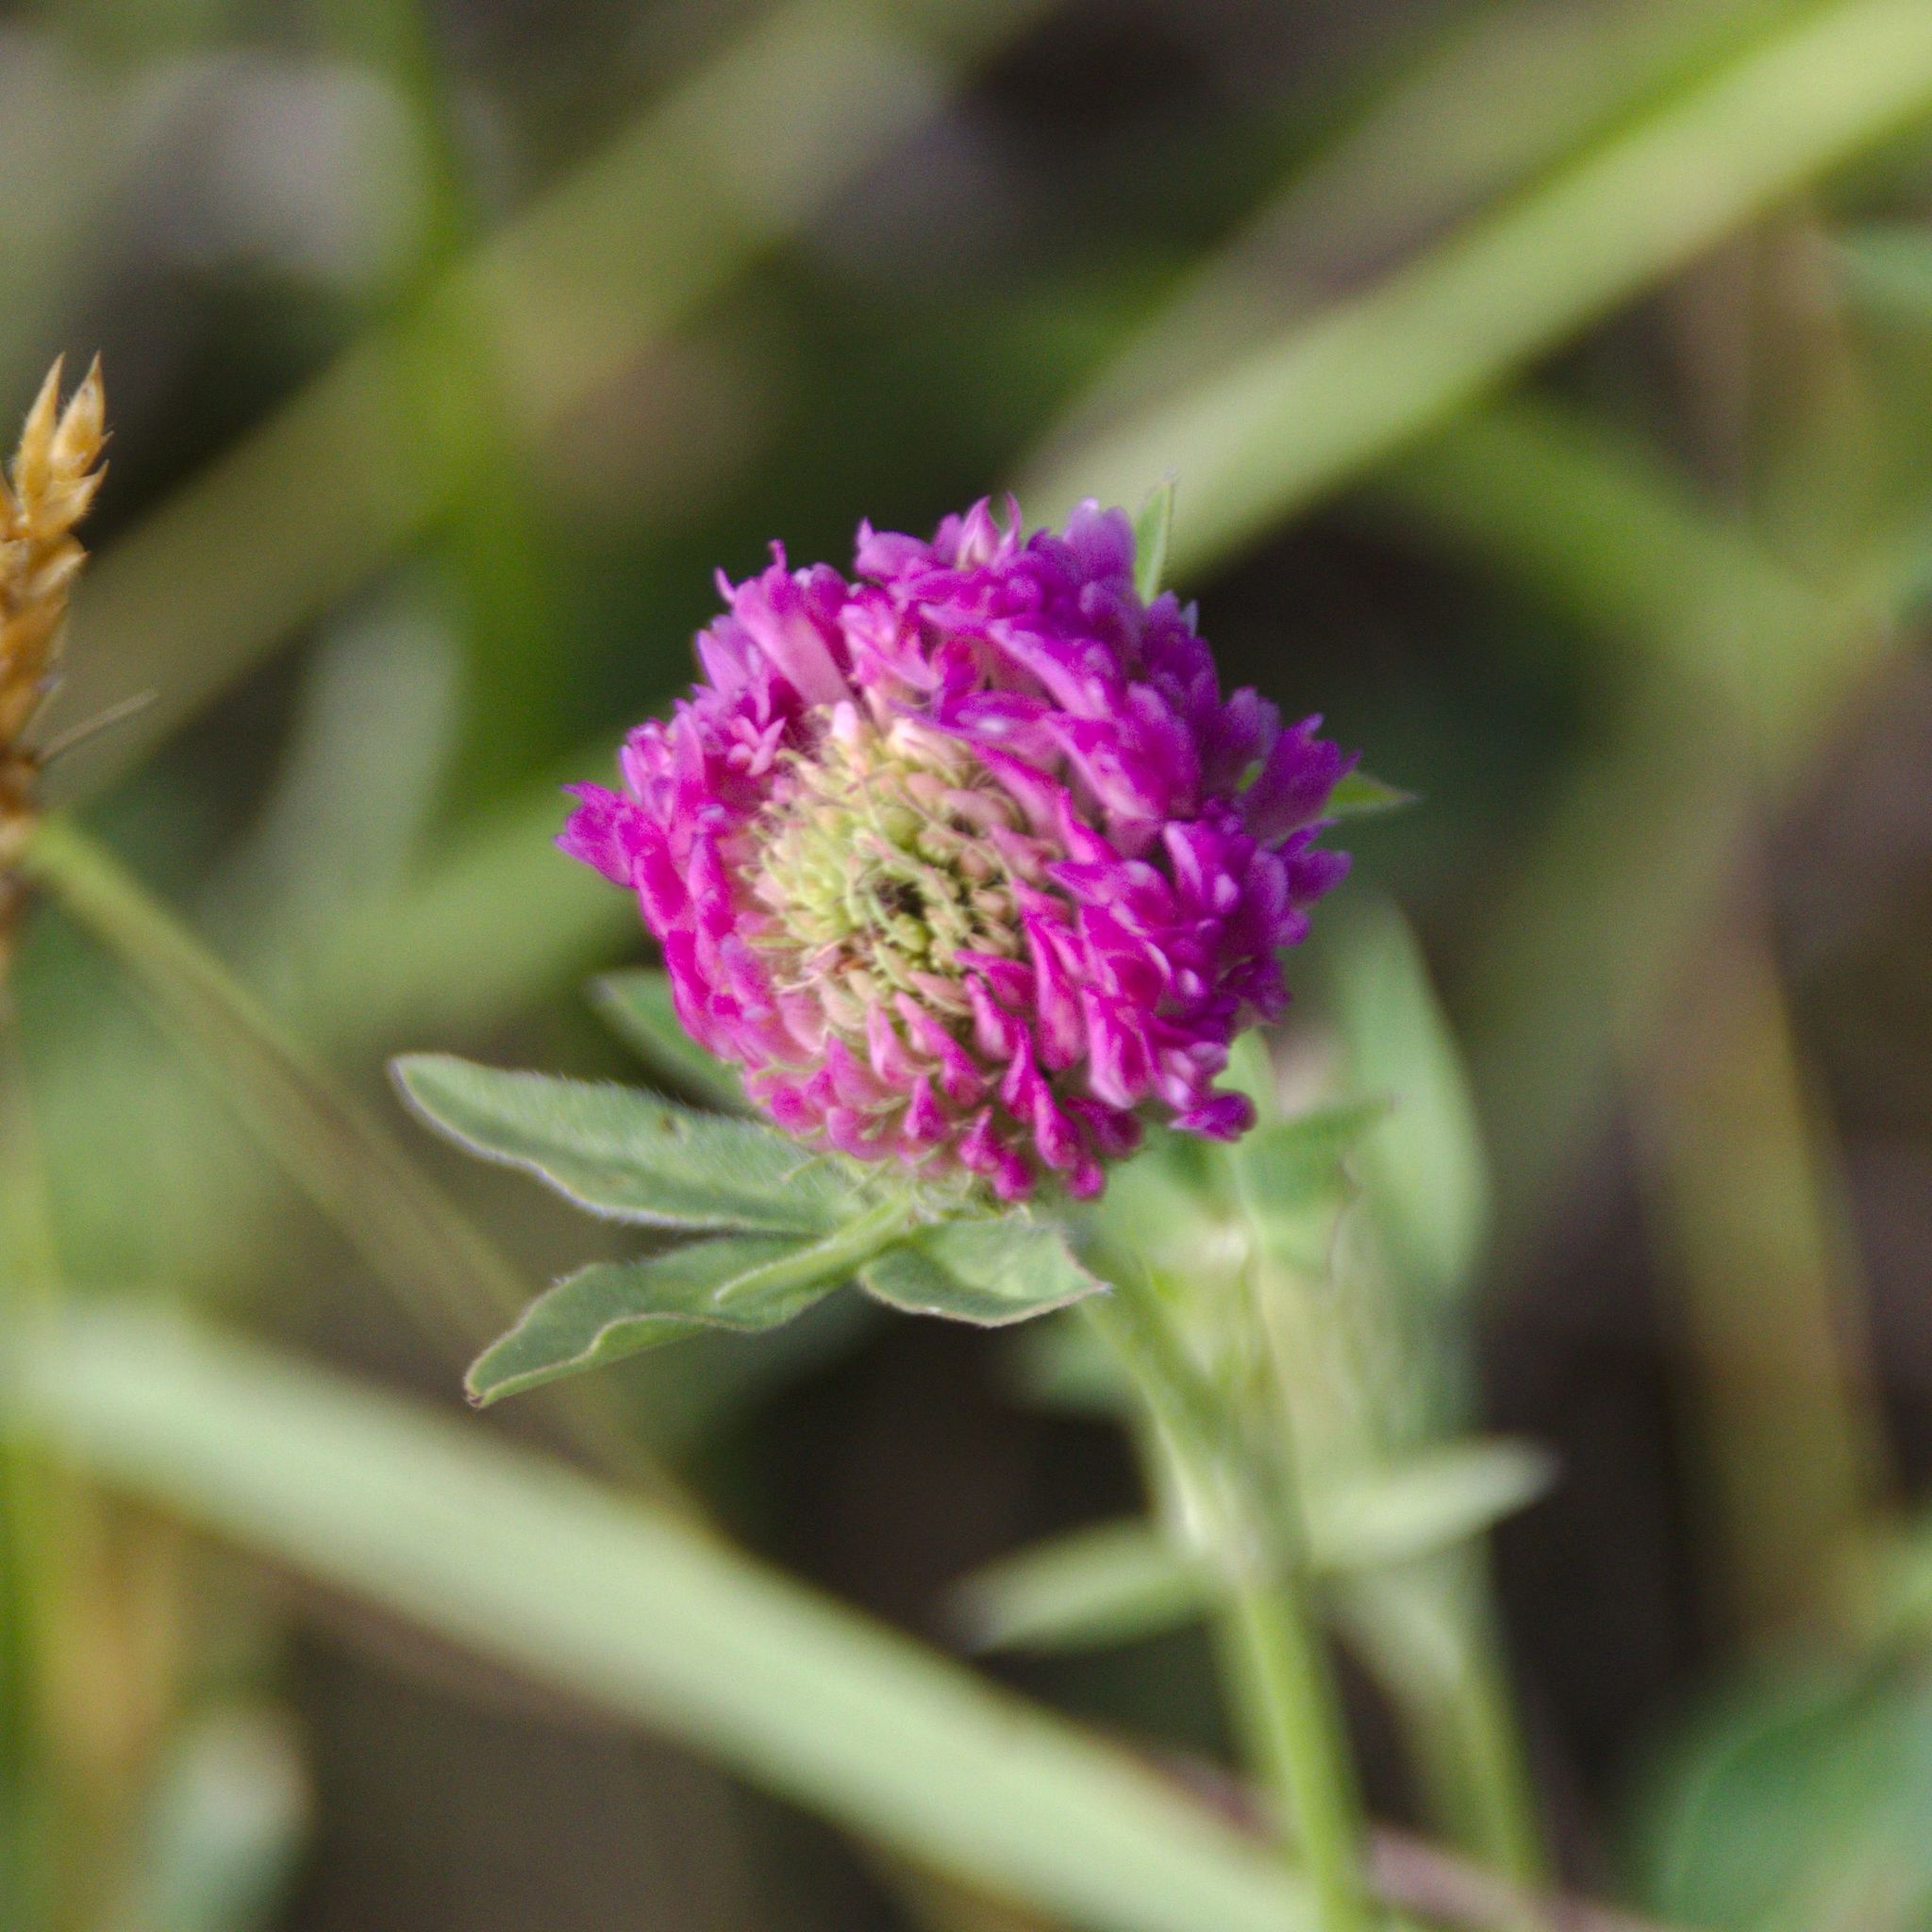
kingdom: Plantae
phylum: Tracheophyta
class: Magnoliopsida
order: Fabales
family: Fabaceae
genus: Trifolium
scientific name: Trifolium pratense
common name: Red clover
